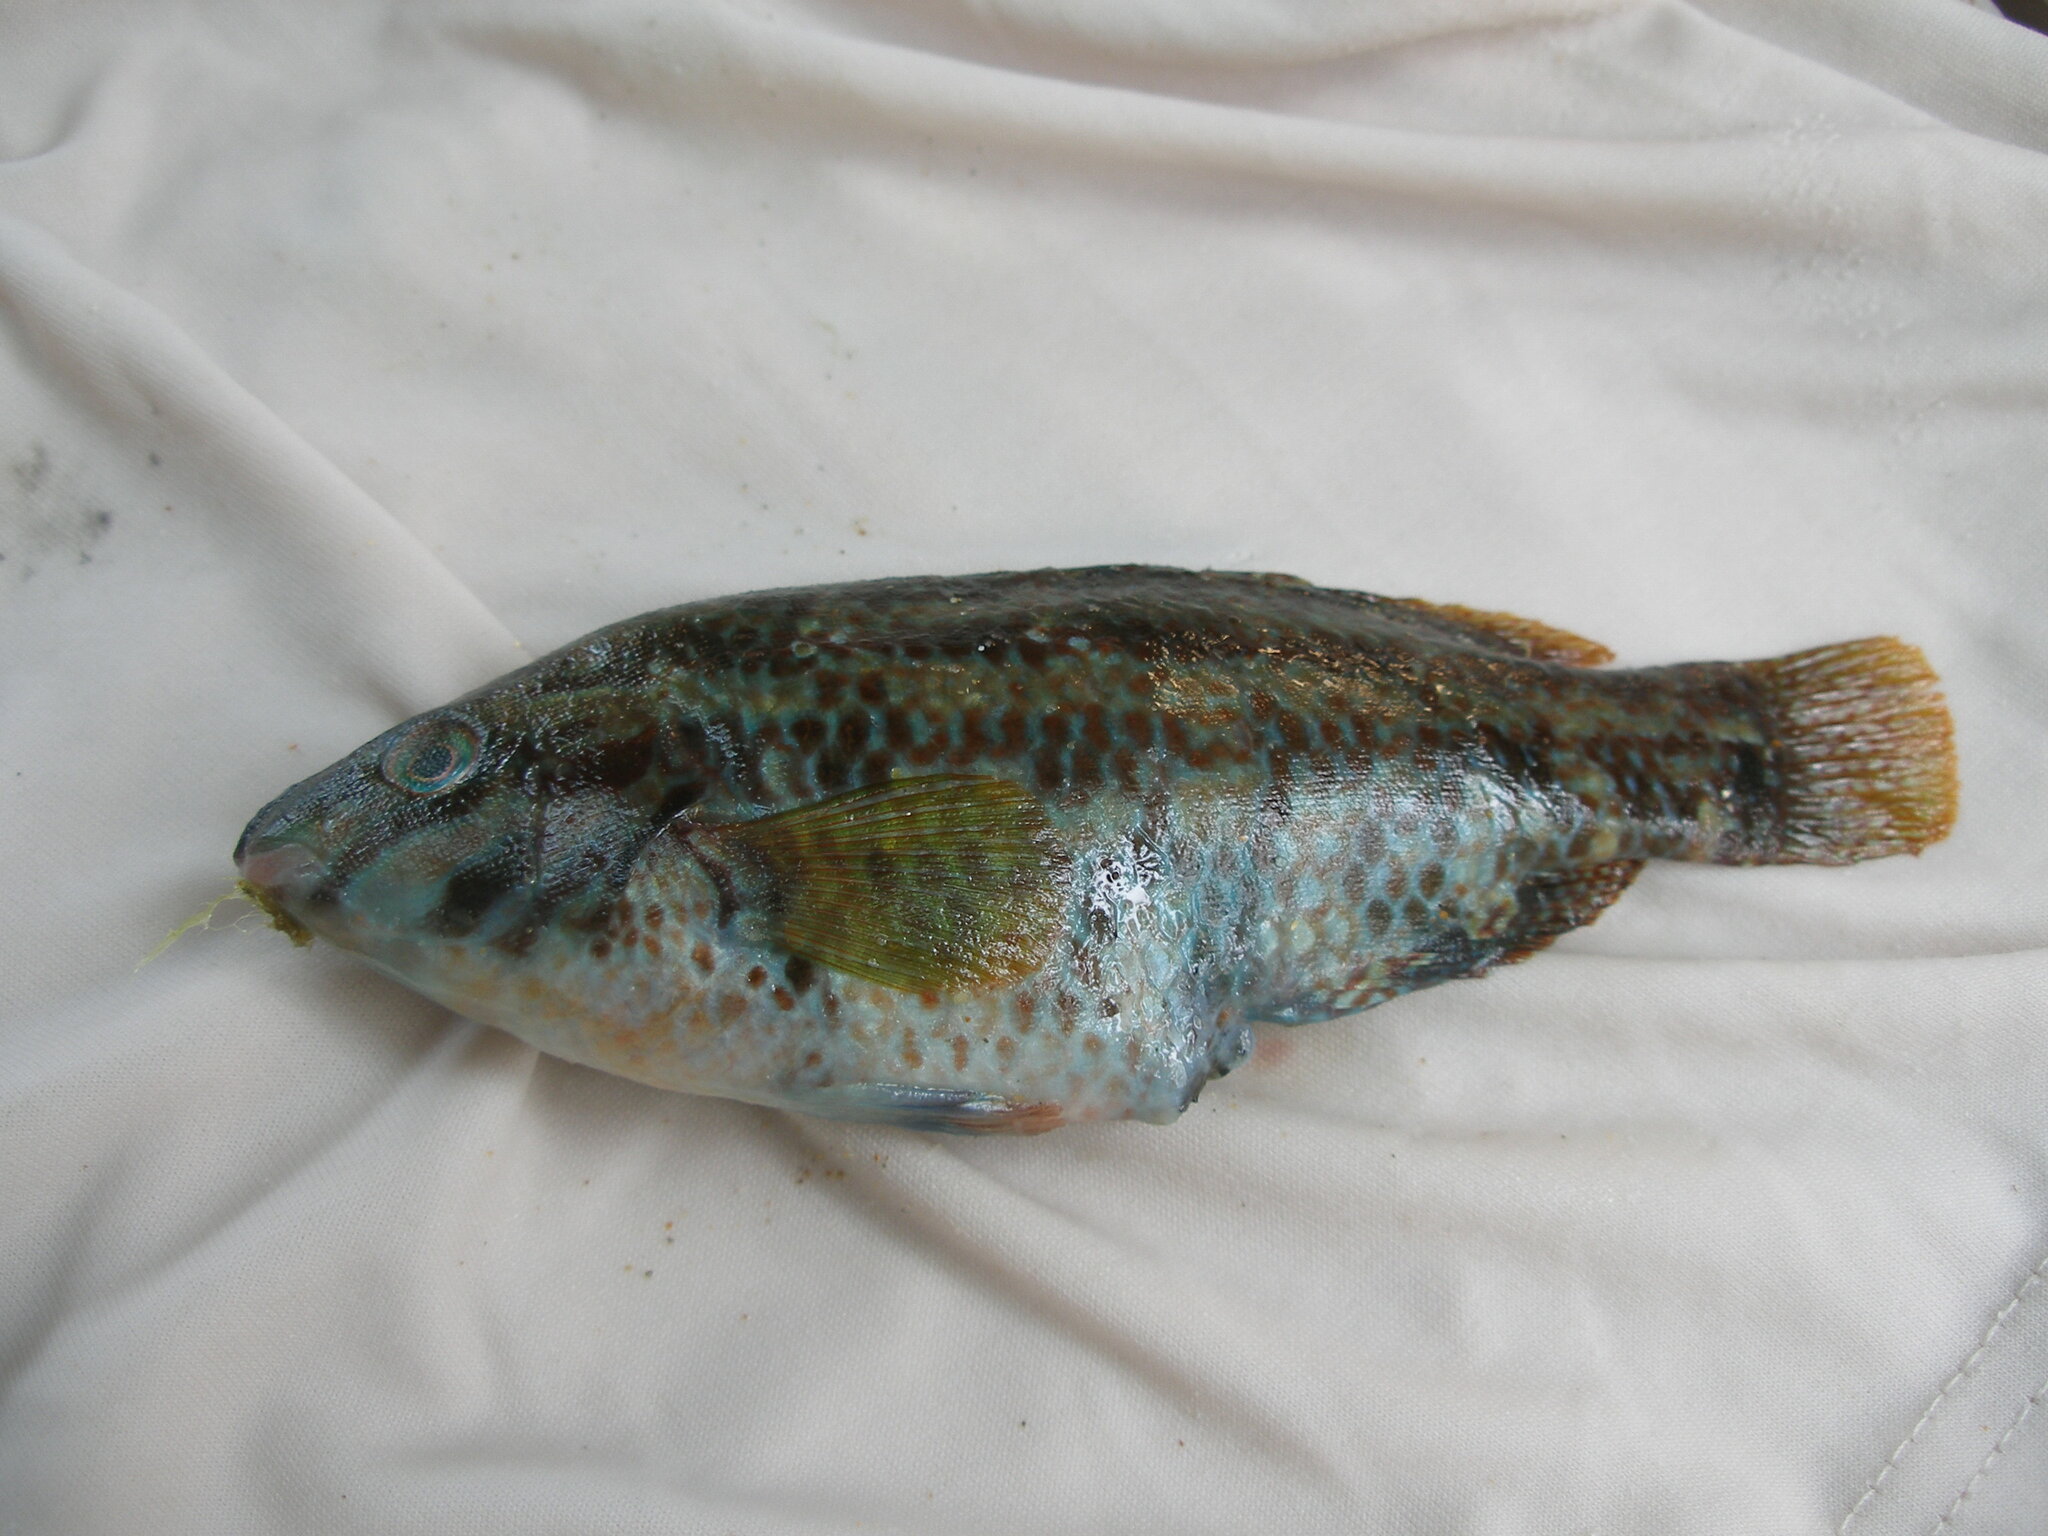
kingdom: Animalia
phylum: Chordata
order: Perciformes
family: Labridae
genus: Symphodus
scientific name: Symphodus roissali
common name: Five-spotted wrasse
